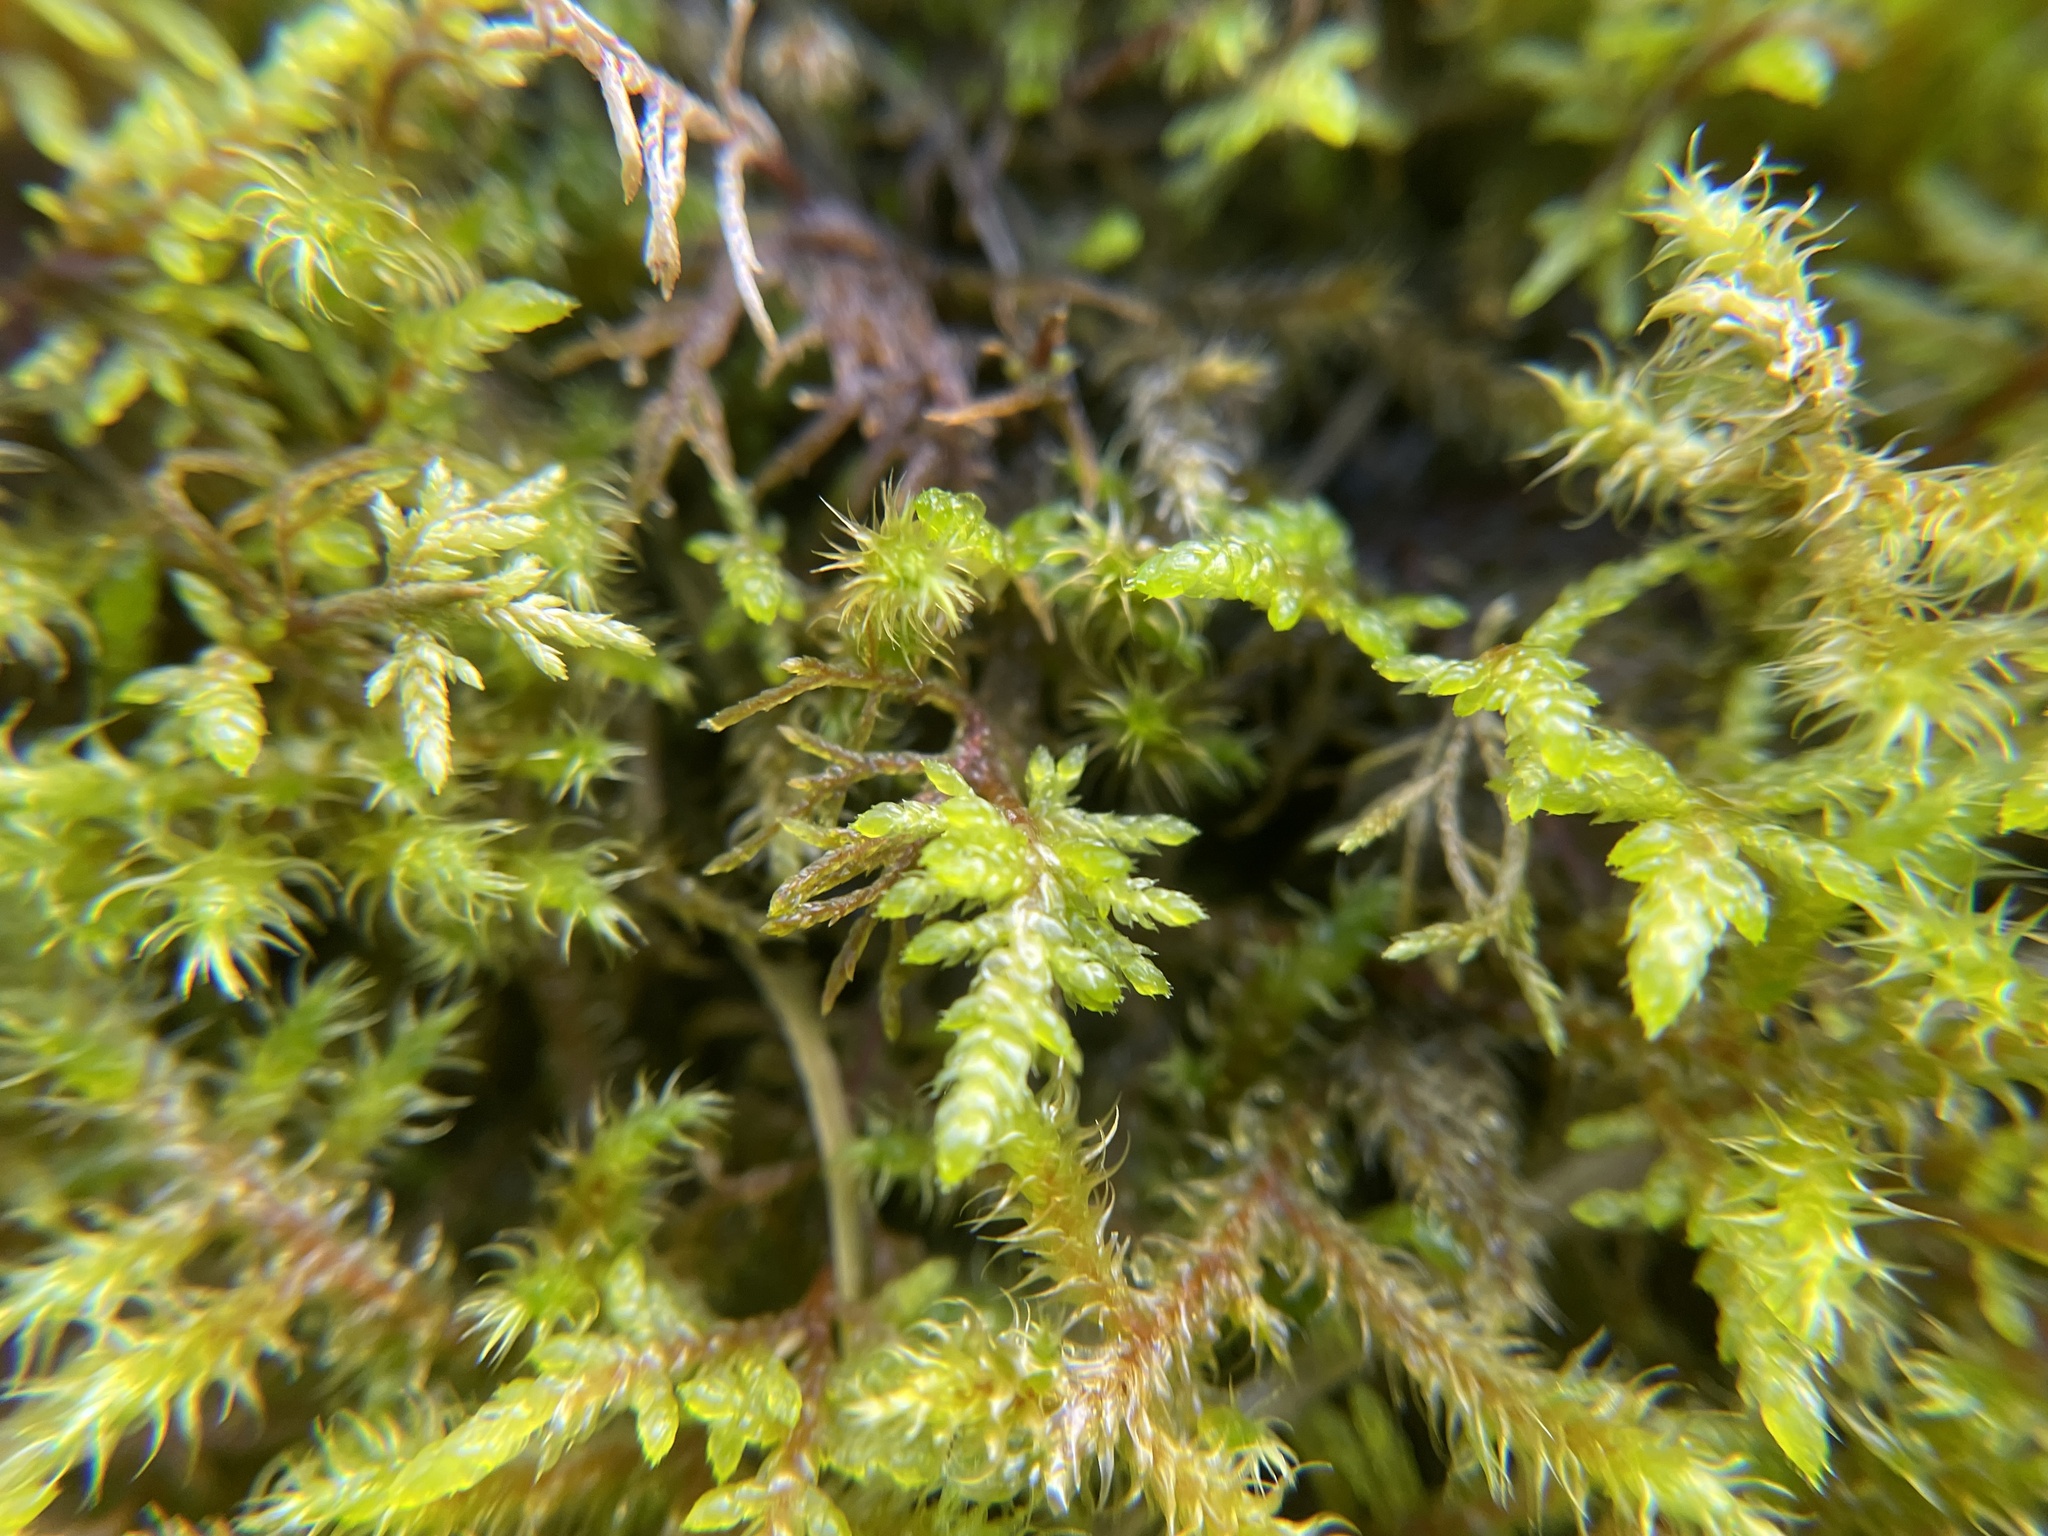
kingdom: Plantae
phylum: Bryophyta
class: Bryopsida
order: Hypnales
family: Hylocomiaceae
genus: Rhytidiadelphus
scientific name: Rhytidiadelphus loreus
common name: Lanky moss
